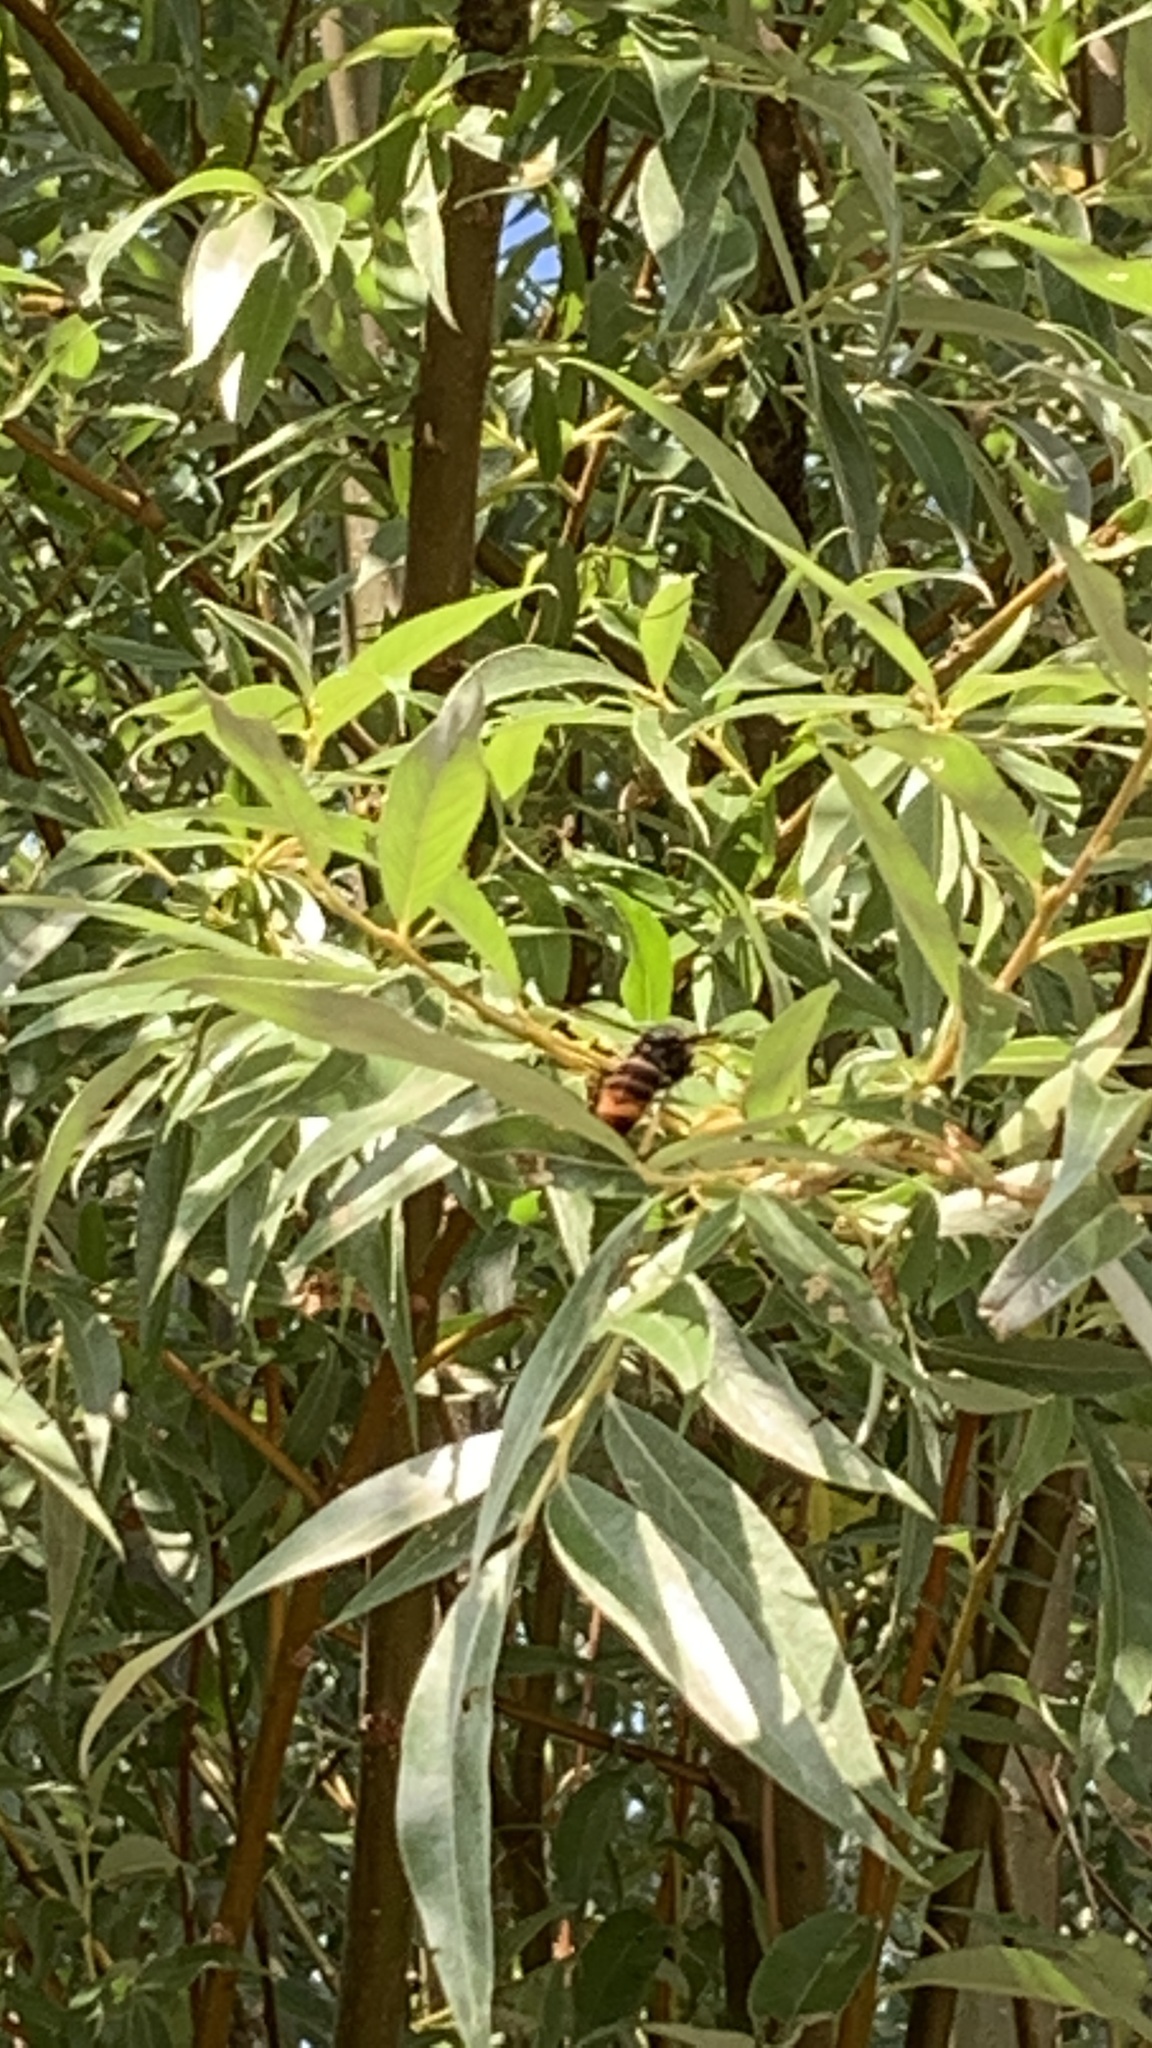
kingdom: Animalia
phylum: Arthropoda
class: Insecta
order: Hymenoptera
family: Vespidae
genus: Vespa
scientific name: Vespa velutina
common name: Asian hornet
